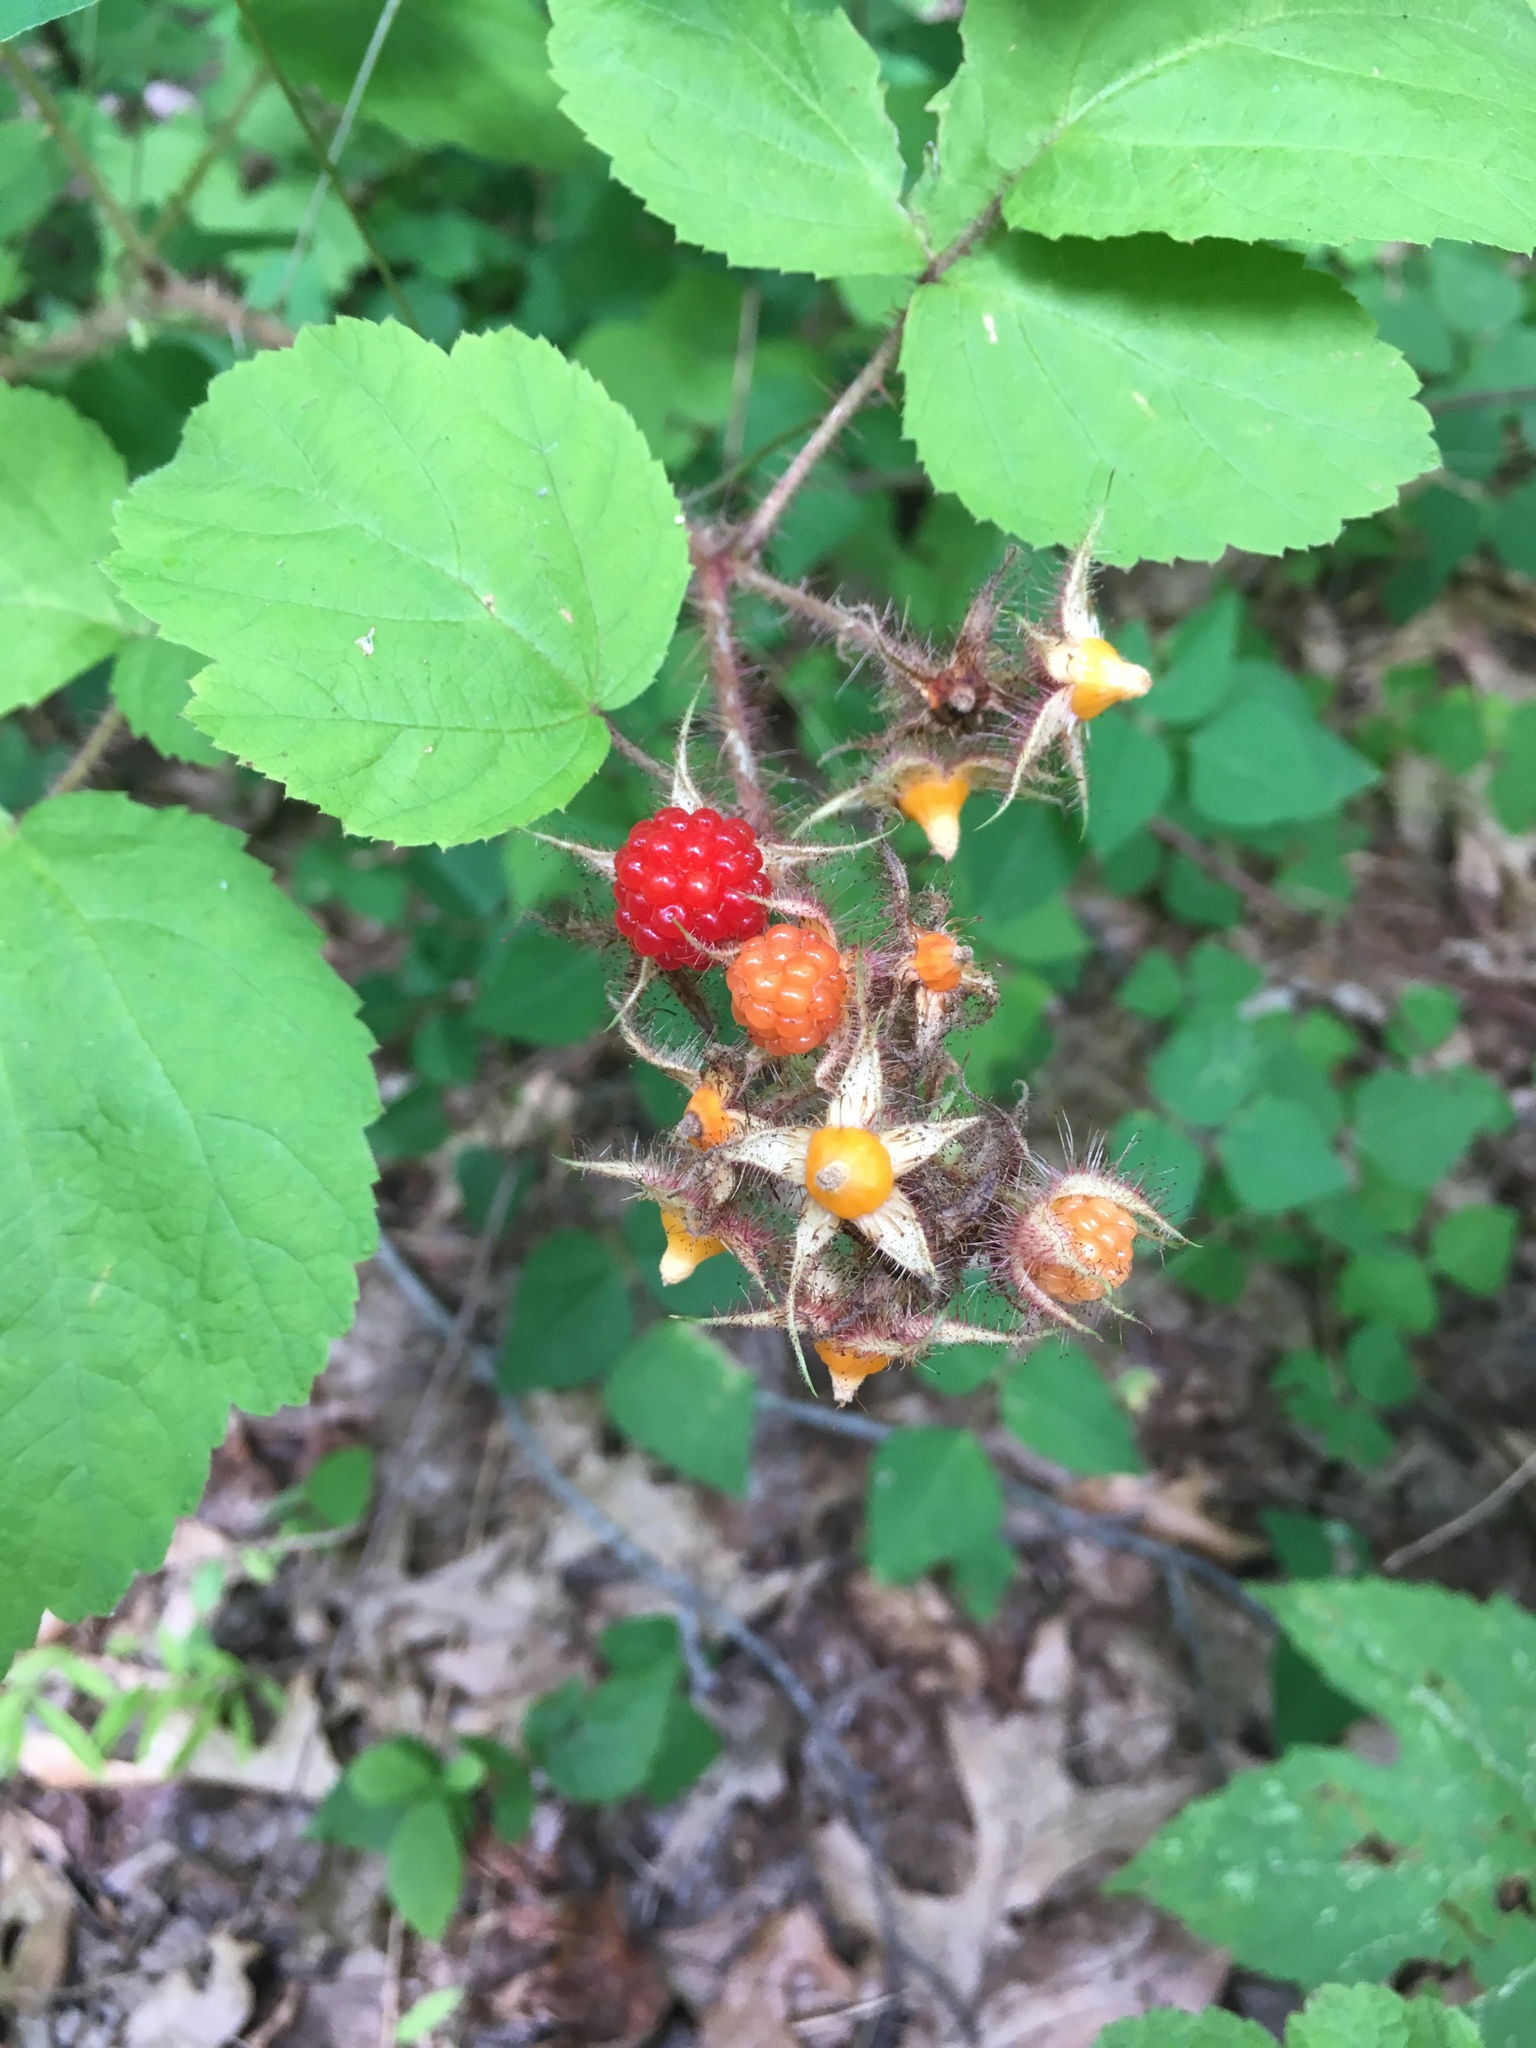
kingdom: Plantae
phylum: Tracheophyta
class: Magnoliopsida
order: Rosales
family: Rosaceae
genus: Rubus
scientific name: Rubus phoenicolasius
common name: Japanese wineberry
